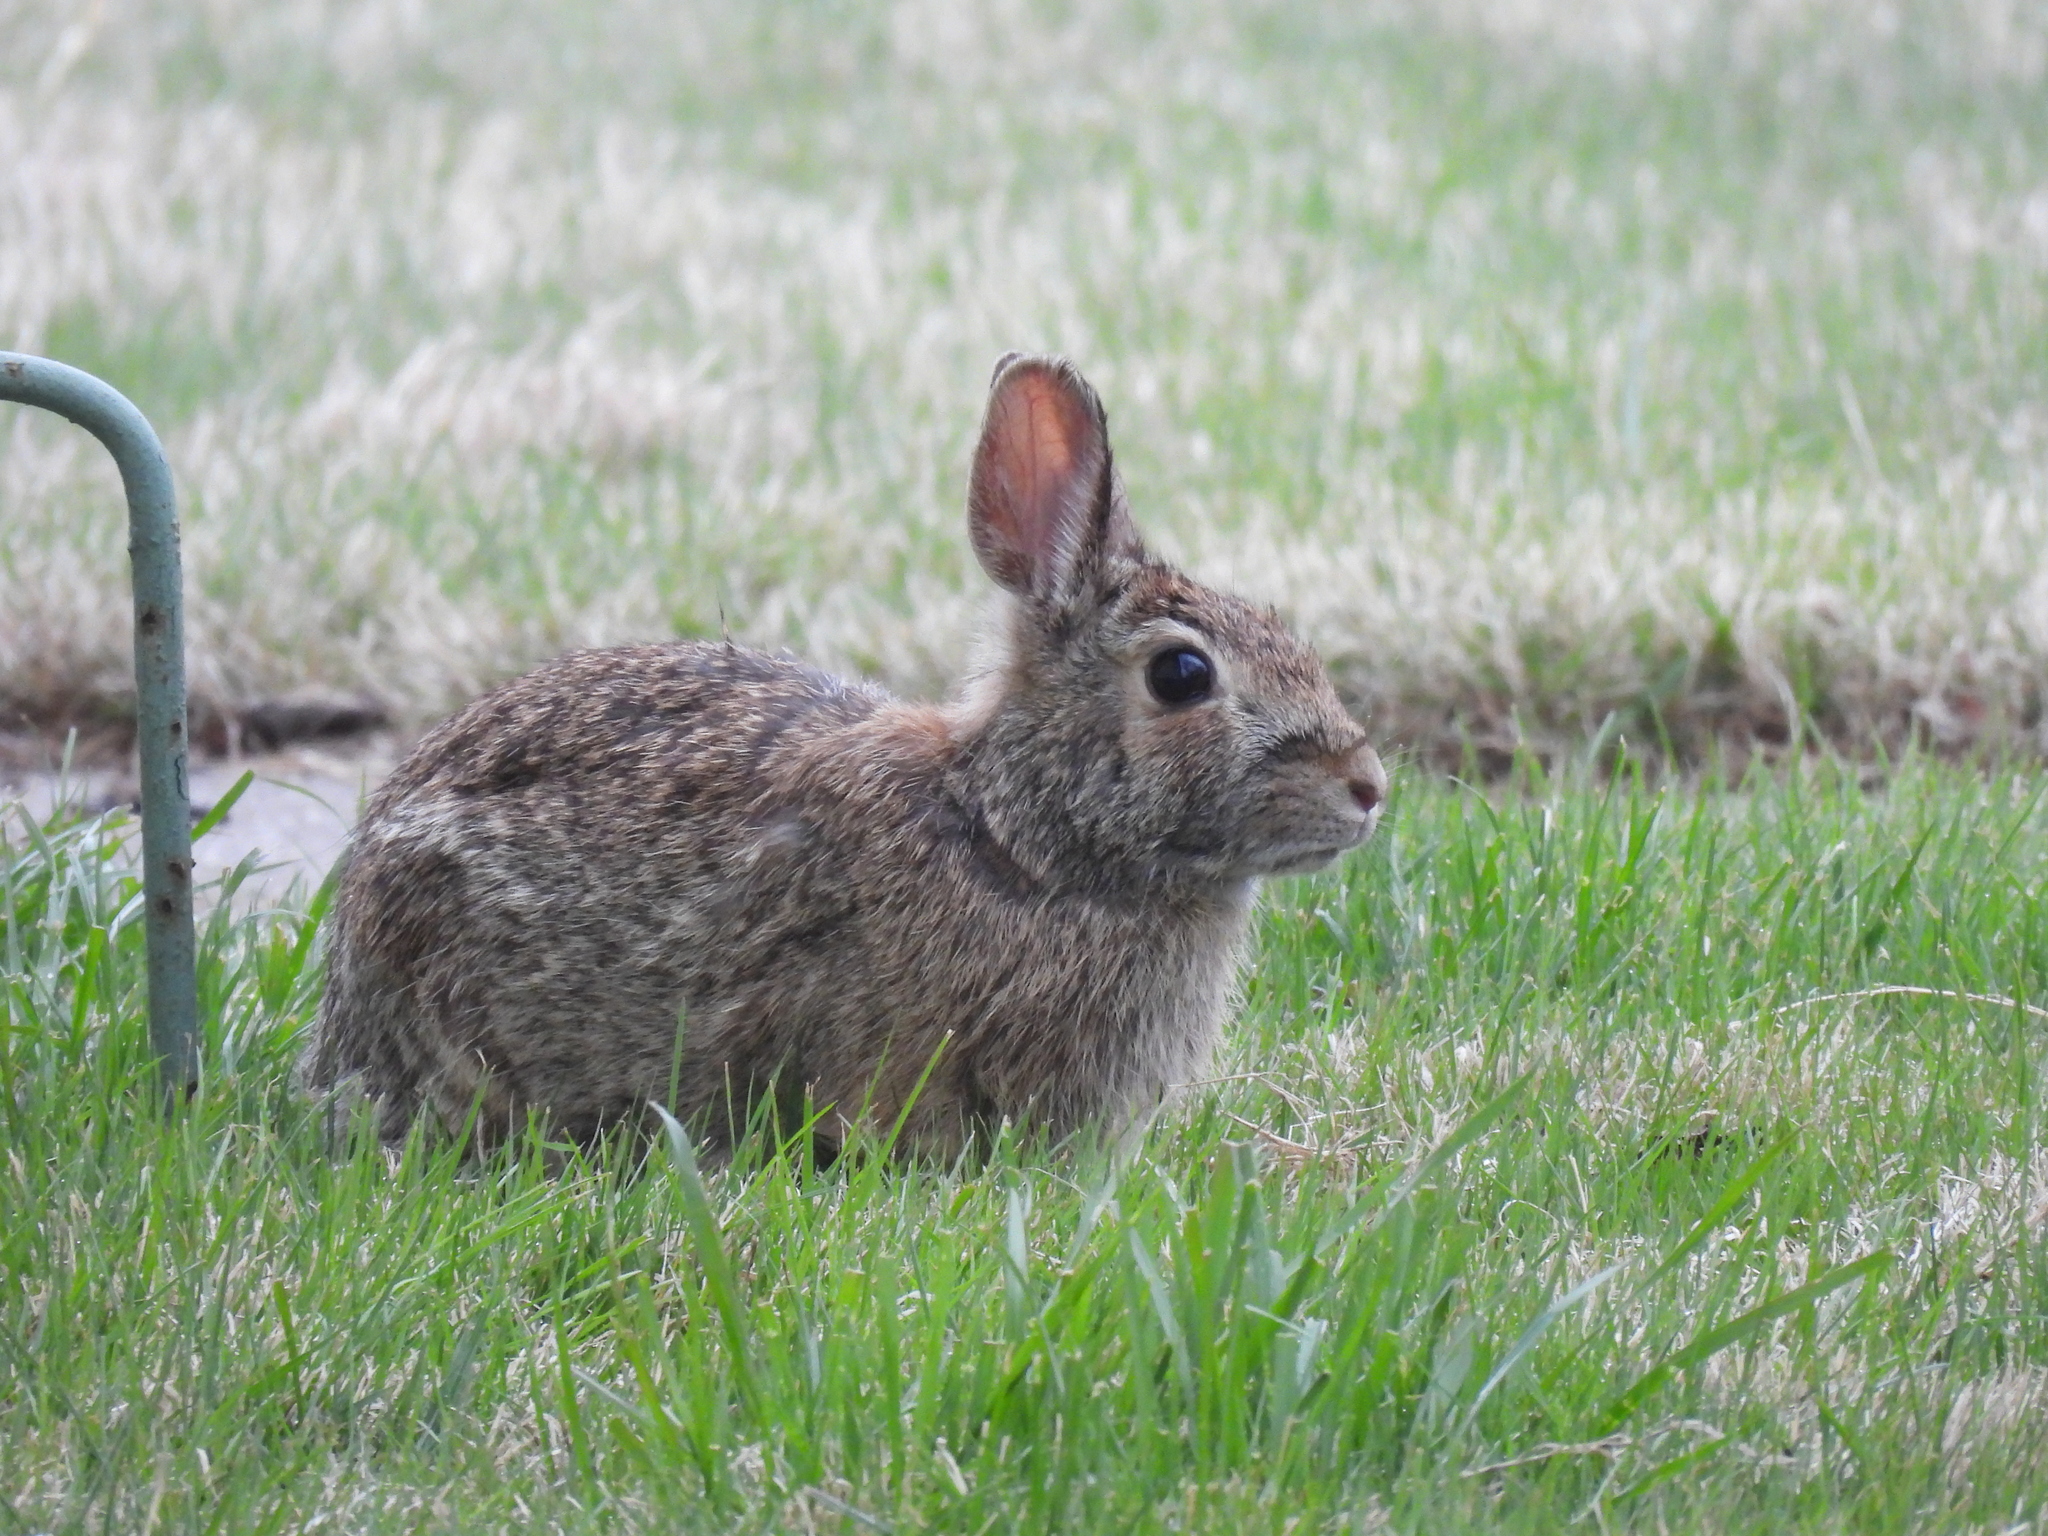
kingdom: Animalia
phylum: Chordata
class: Mammalia
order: Lagomorpha
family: Leporidae
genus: Sylvilagus
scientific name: Sylvilagus floridanus
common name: Eastern cottontail
